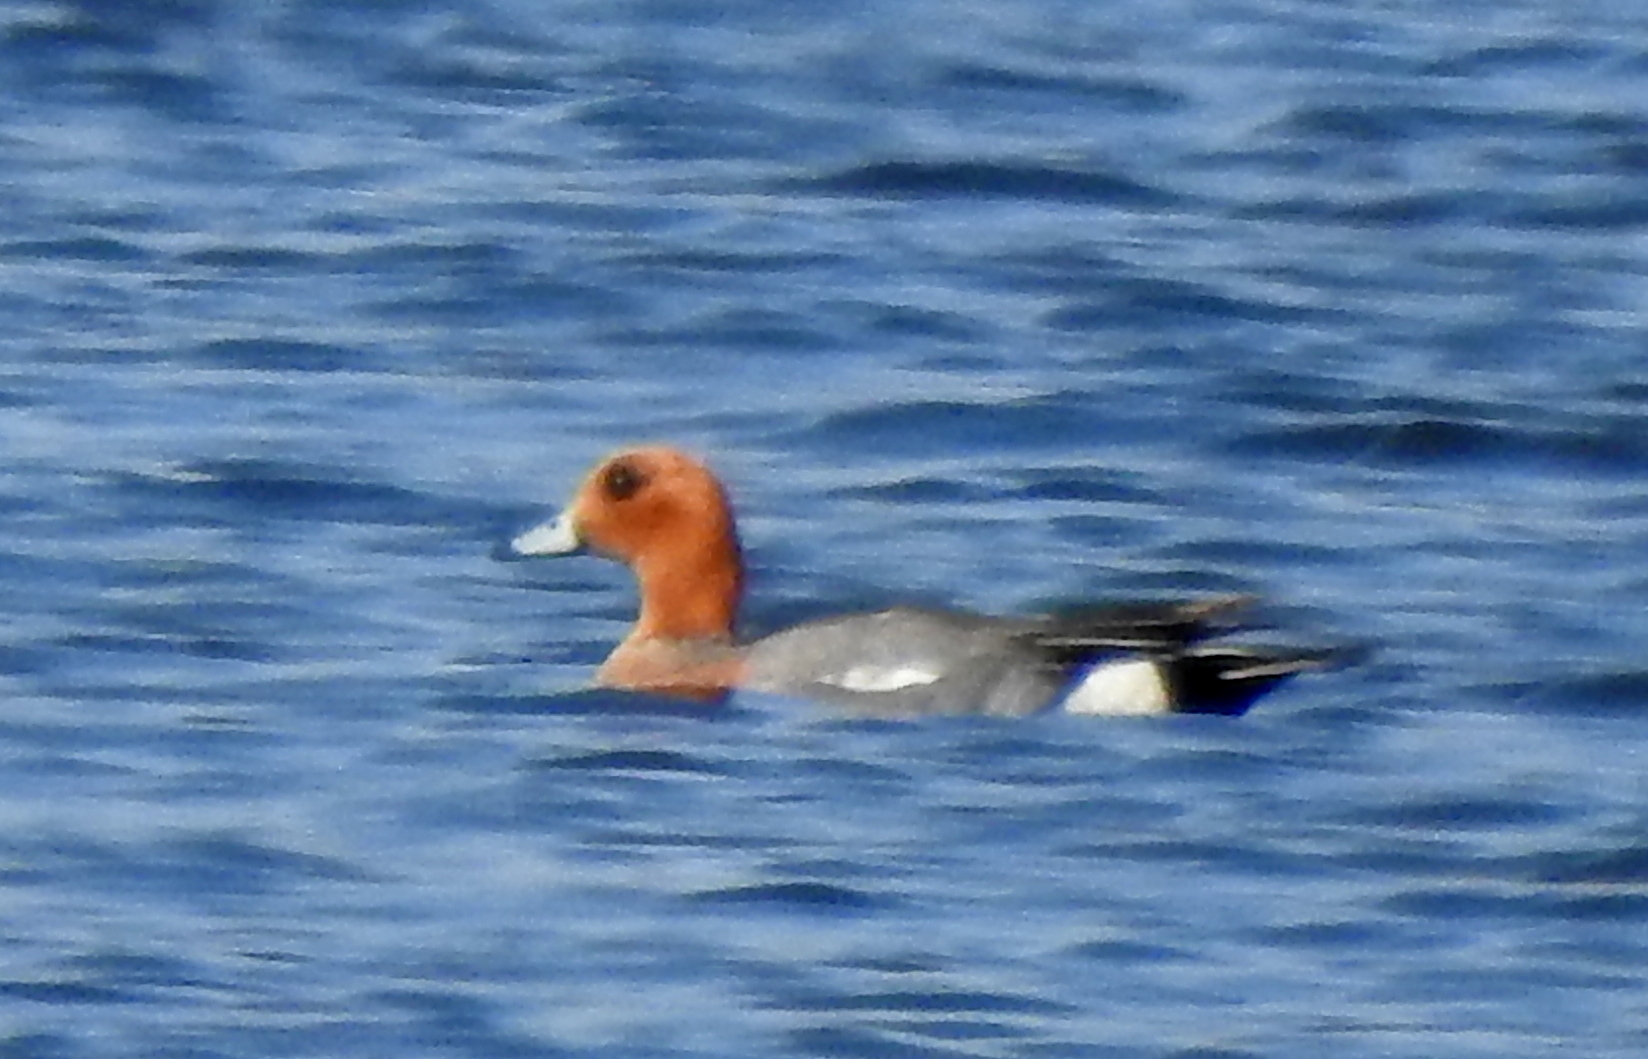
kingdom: Animalia
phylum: Chordata
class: Aves
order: Anseriformes
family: Anatidae
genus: Mareca
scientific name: Mareca penelope
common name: Eurasian wigeon
